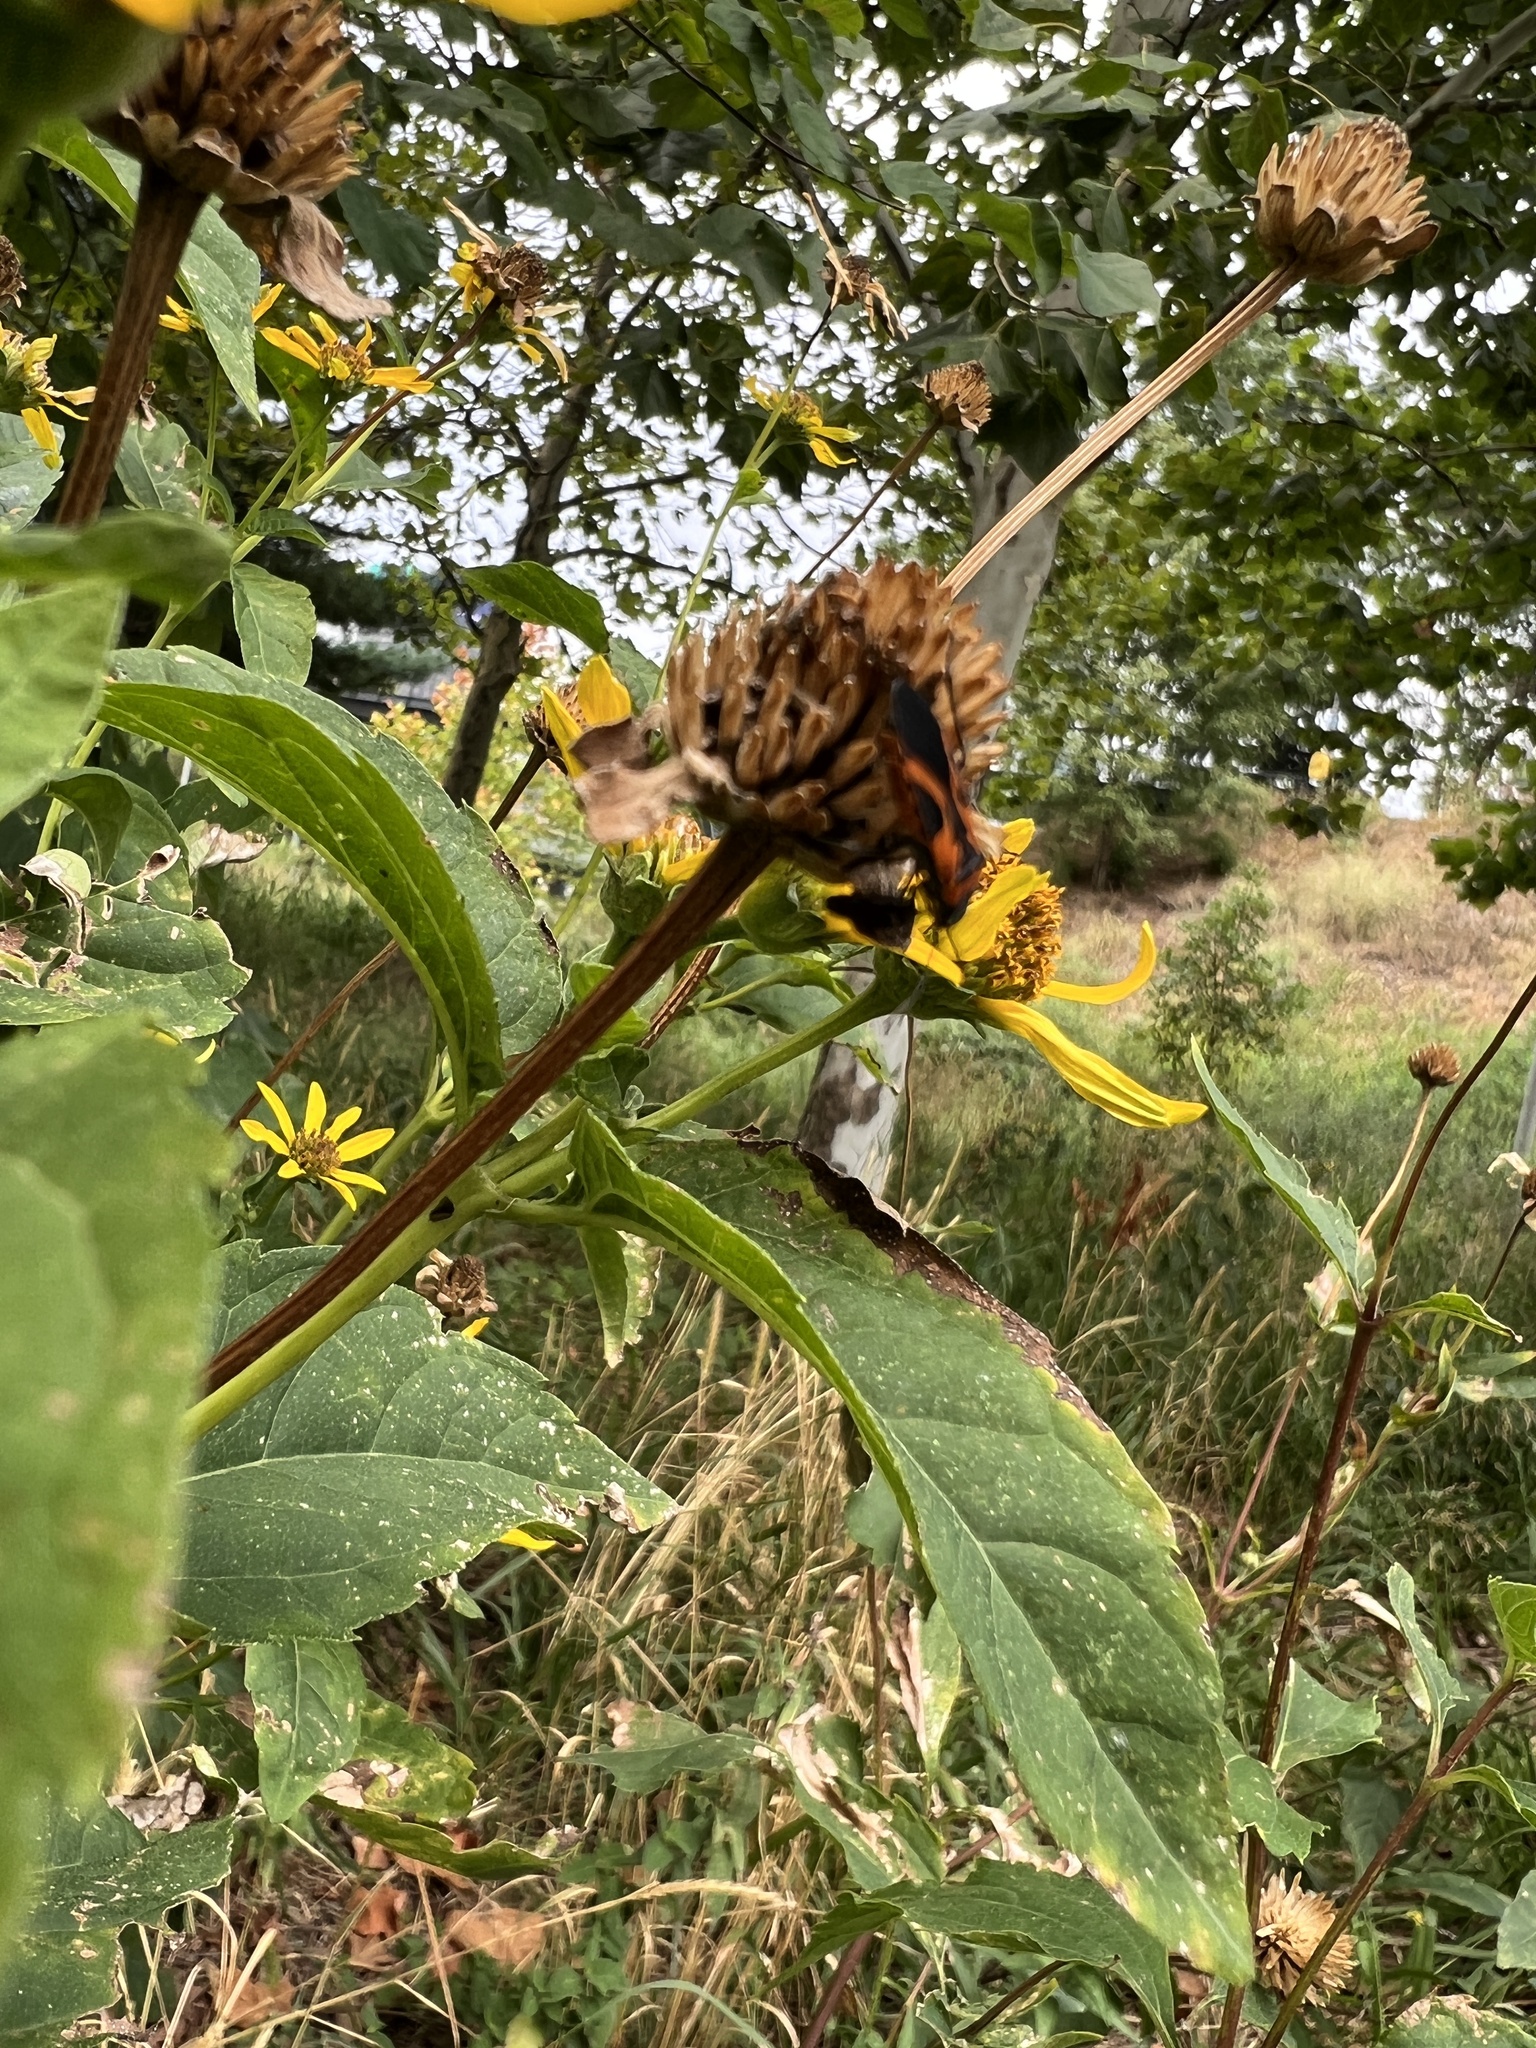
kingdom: Animalia
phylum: Arthropoda
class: Insecta
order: Hemiptera
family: Lygaeidae
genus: Lygaeus
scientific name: Lygaeus turcicus
